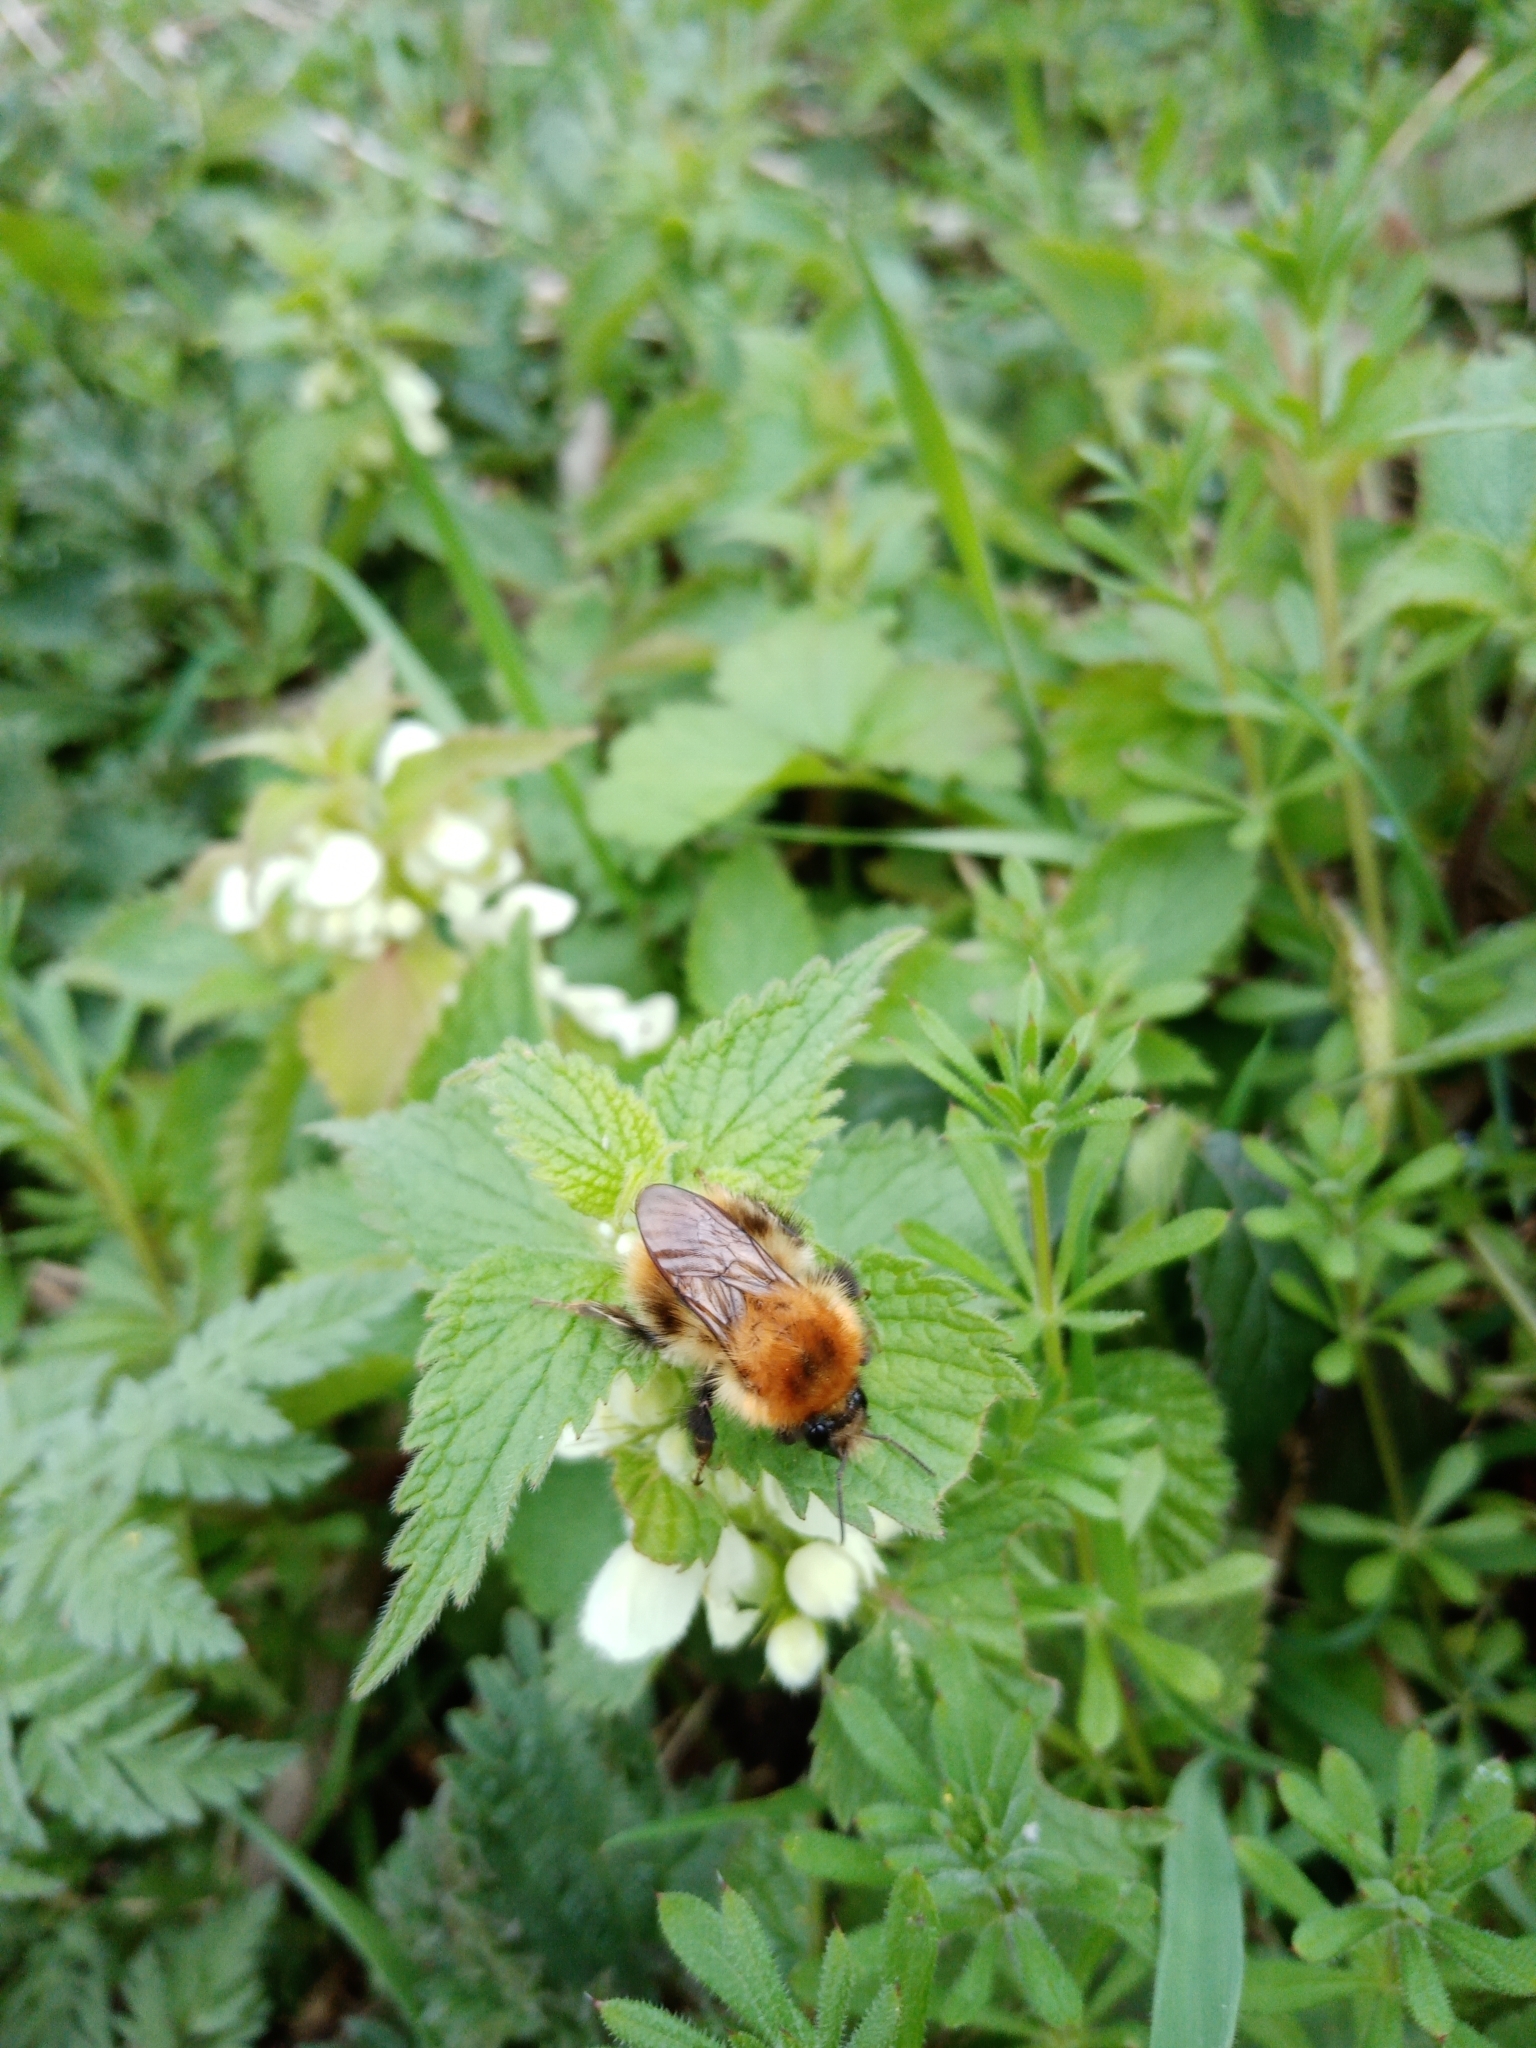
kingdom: Animalia
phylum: Arthropoda
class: Insecta
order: Hymenoptera
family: Apidae
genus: Bombus
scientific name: Bombus pascuorum
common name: Common carder bee
